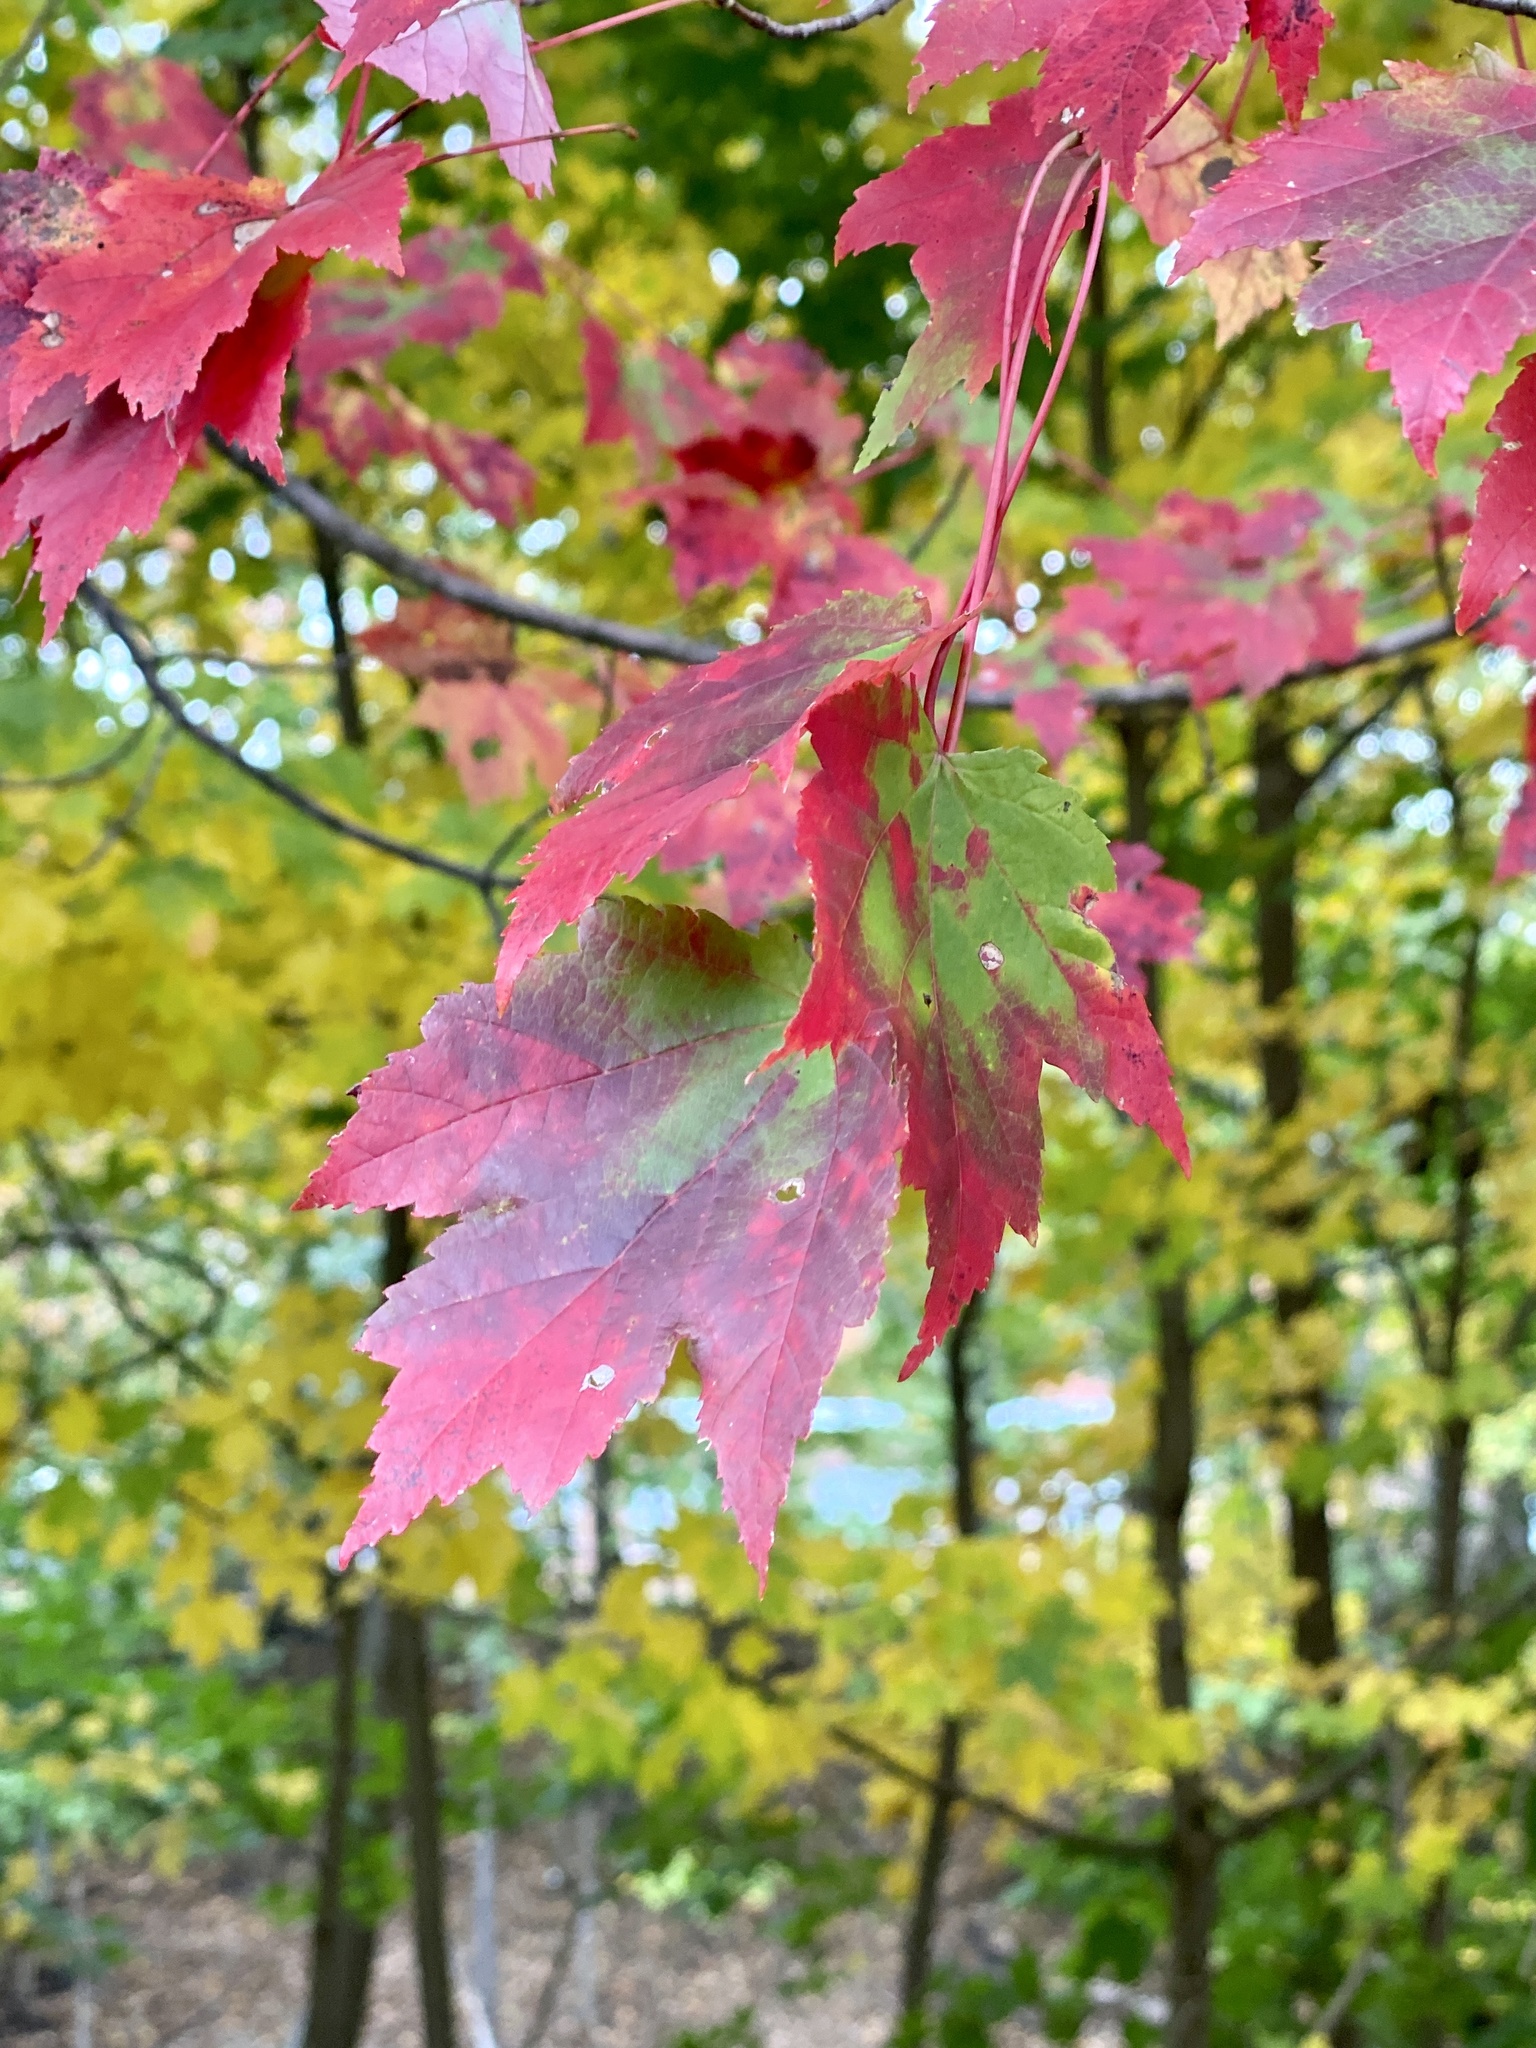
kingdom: Plantae
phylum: Tracheophyta
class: Magnoliopsida
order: Sapindales
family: Sapindaceae
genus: Acer
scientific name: Acer rubrum
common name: Red maple
